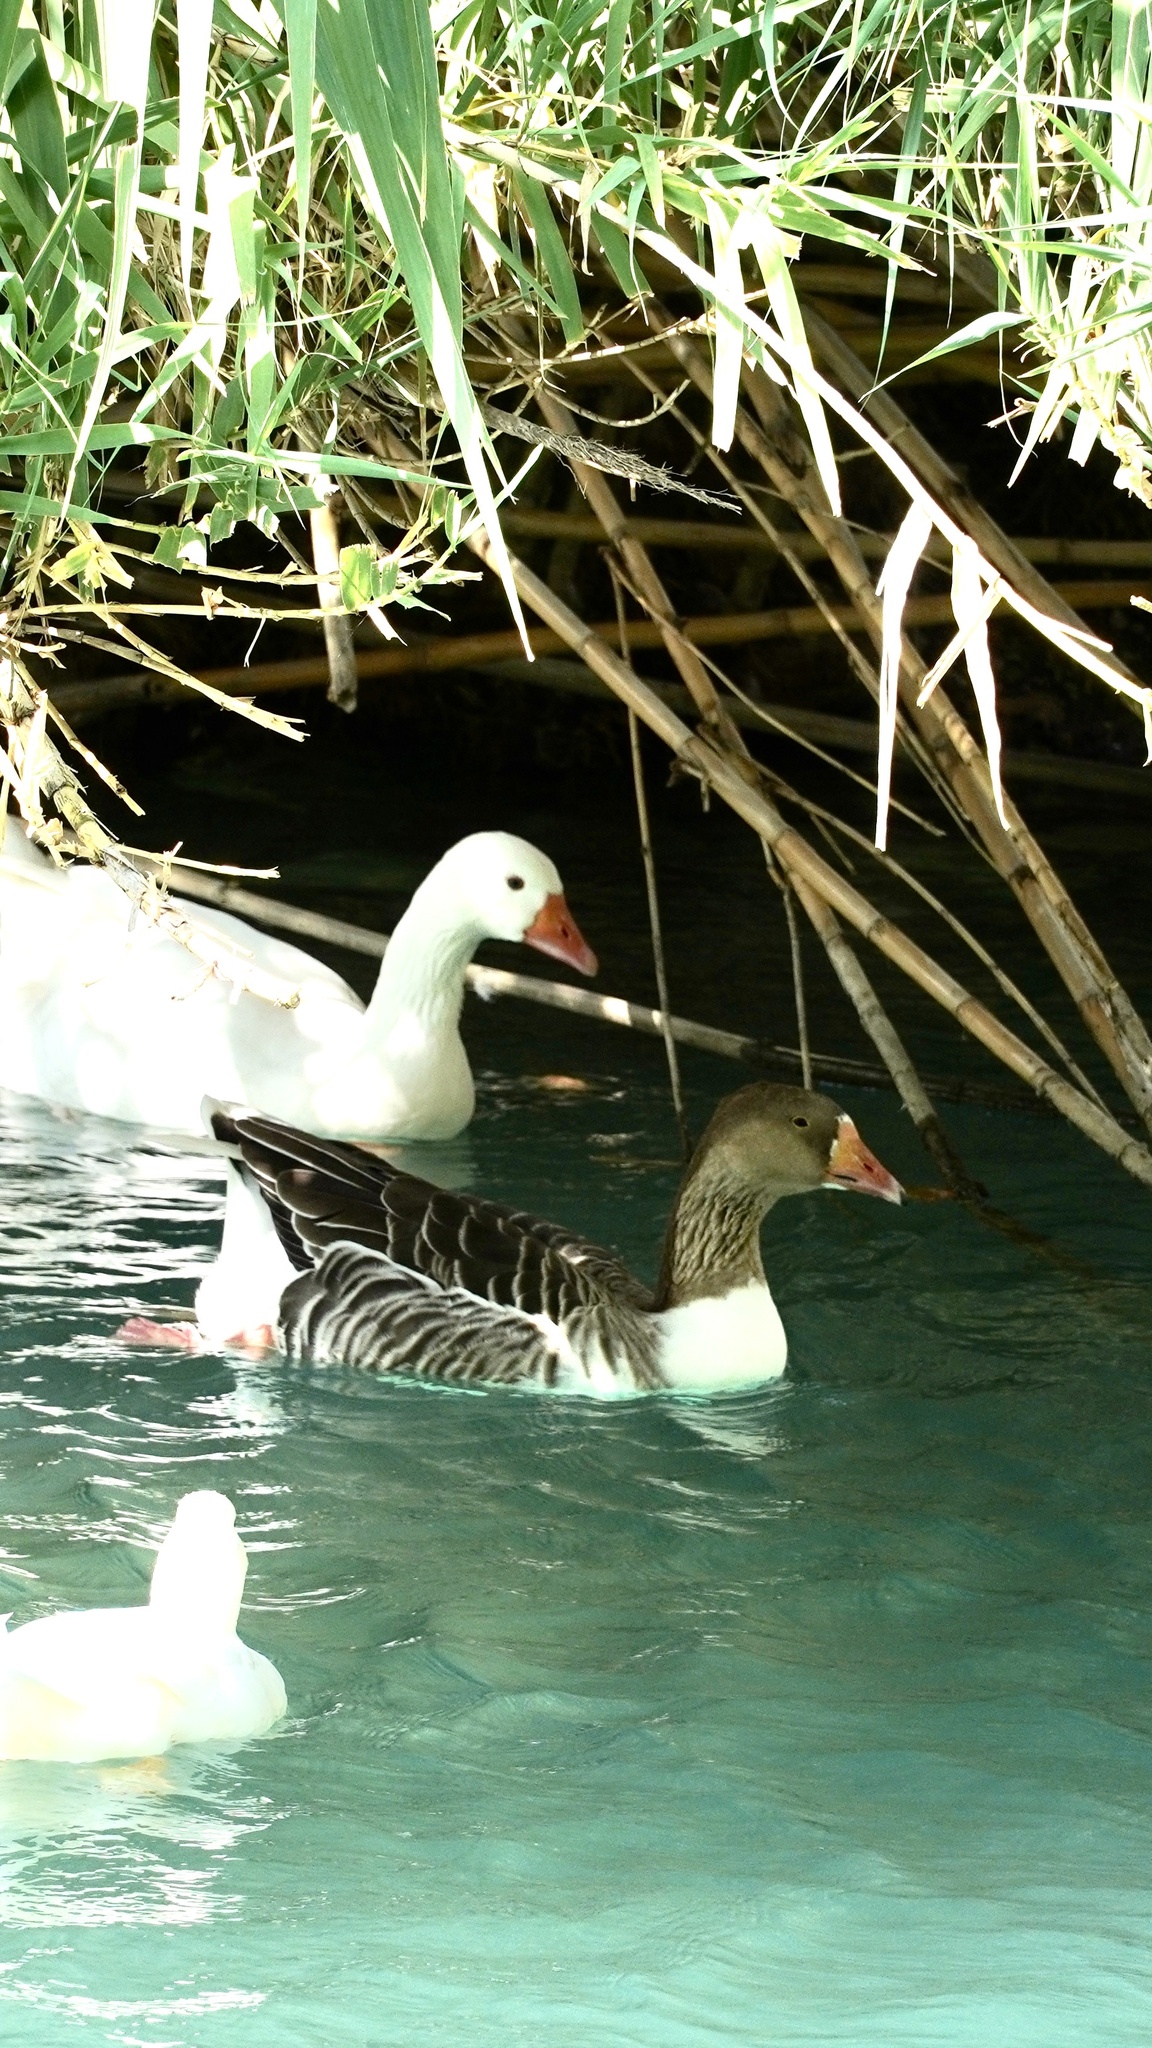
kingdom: Animalia
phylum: Chordata
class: Aves
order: Anseriformes
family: Anatidae
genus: Anser
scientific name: Anser anser
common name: Greylag goose
